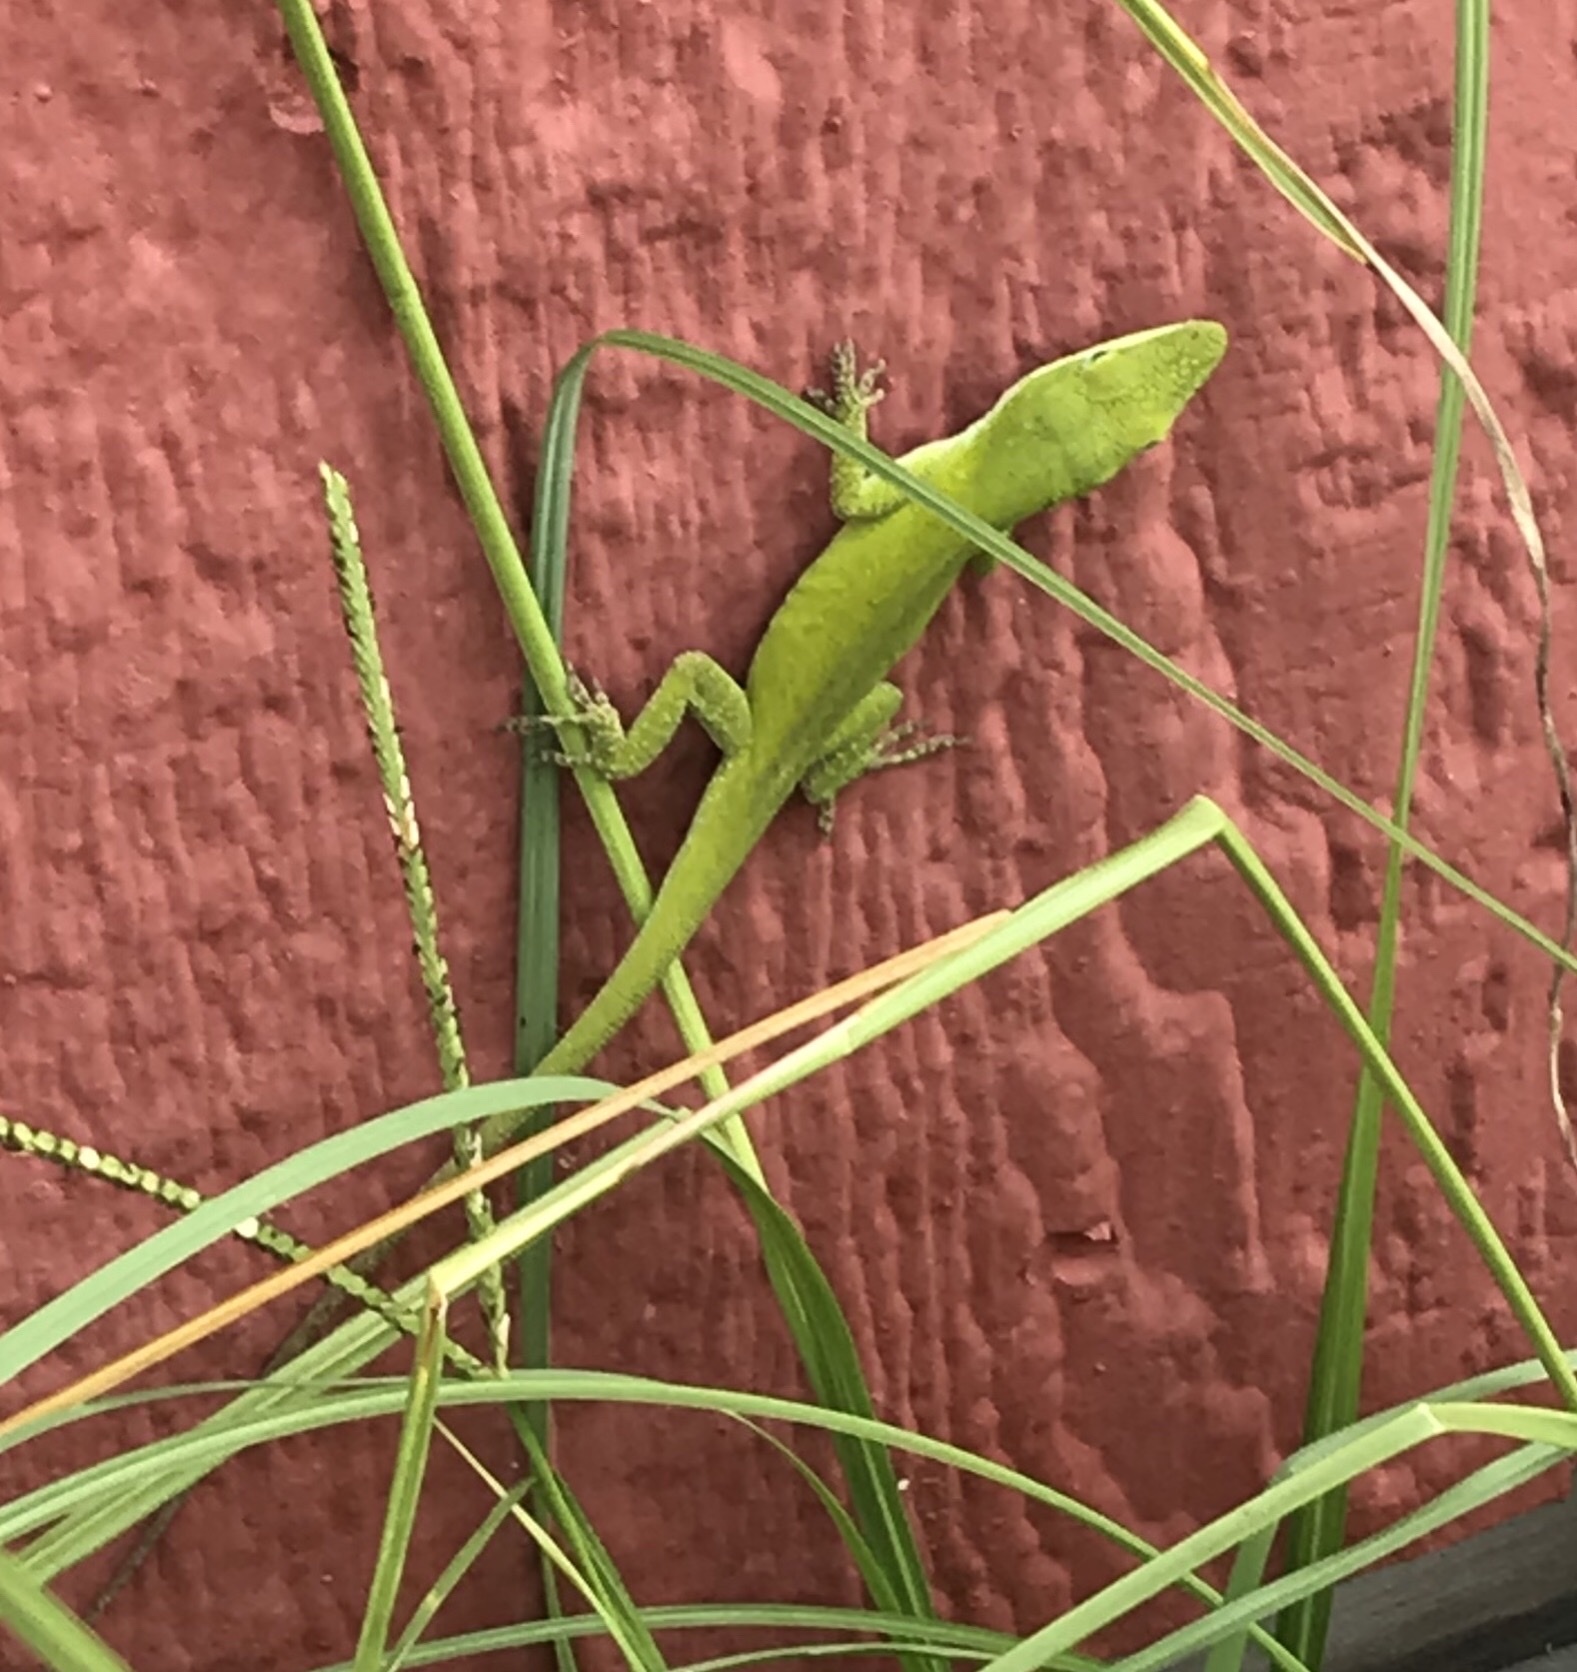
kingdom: Animalia
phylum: Chordata
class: Squamata
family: Dactyloidae
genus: Anolis
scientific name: Anolis carolinensis
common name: Green anole
